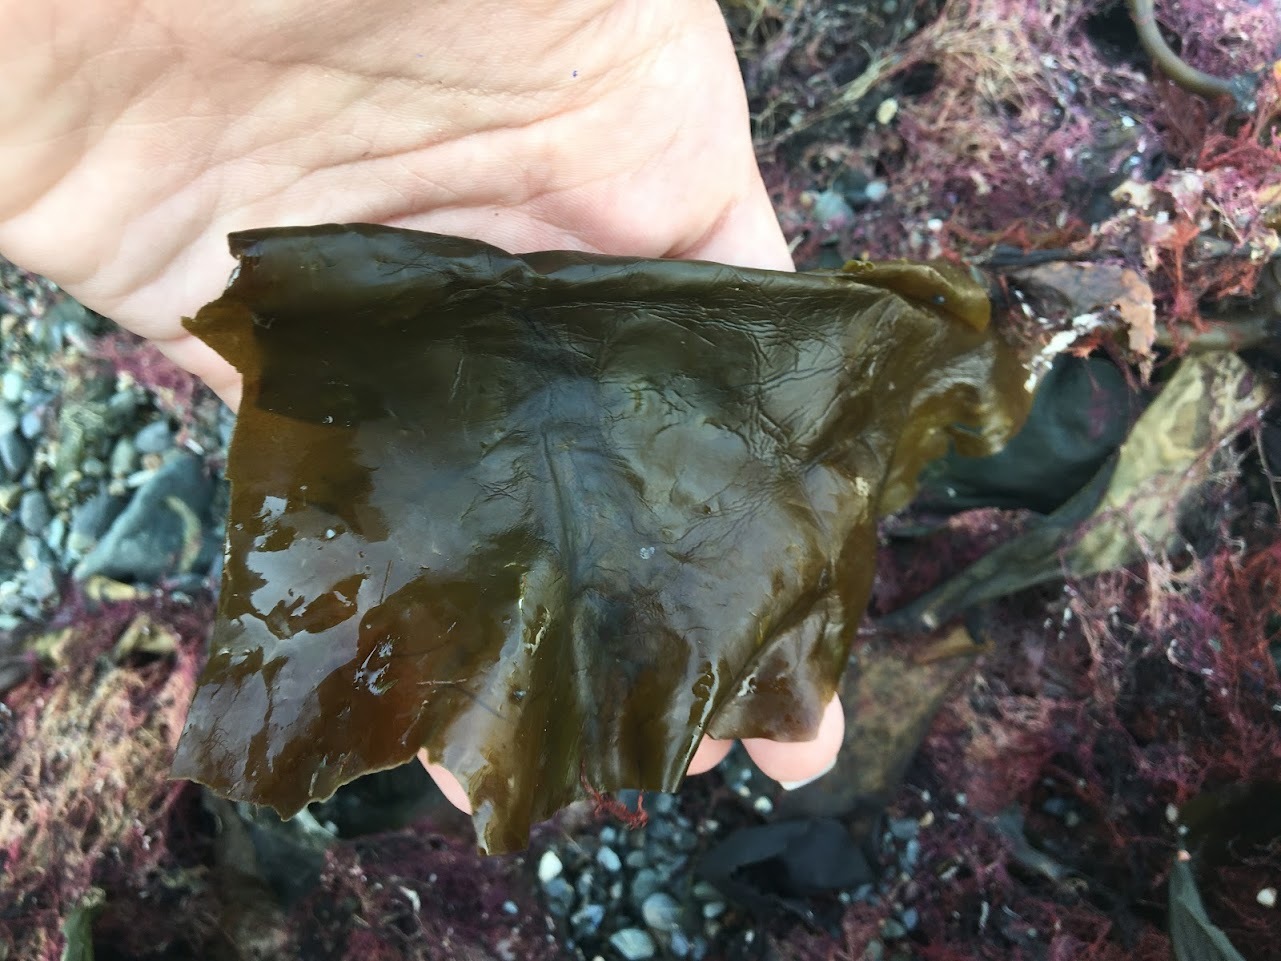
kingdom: Chromista
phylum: Ochrophyta
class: Phaeophyceae
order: Laminariales
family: Laminariaceae
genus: Saccharina
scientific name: Saccharina latissima
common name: Poor man's weather glass
